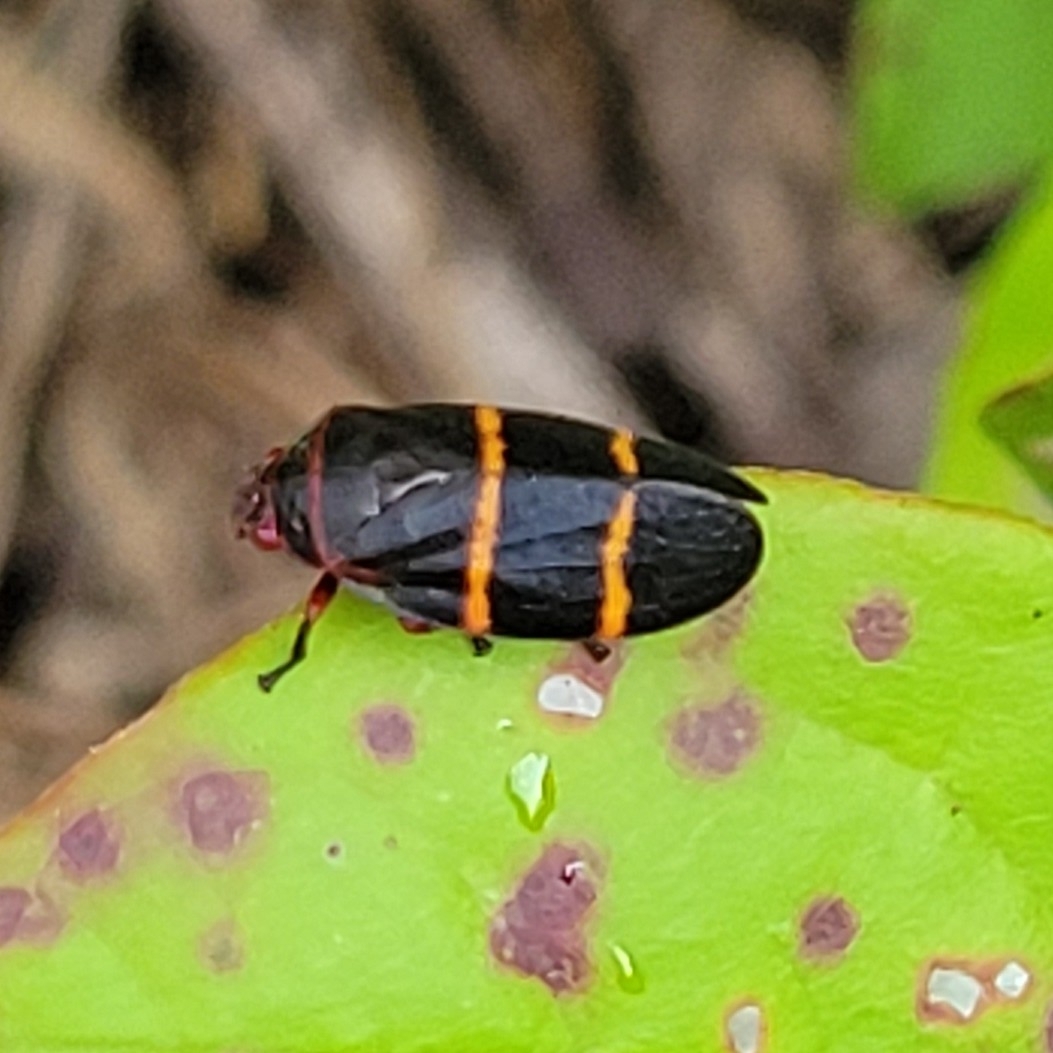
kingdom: Animalia
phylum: Arthropoda
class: Insecta
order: Hemiptera
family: Cercopidae
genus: Prosapia
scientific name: Prosapia bicincta
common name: Twolined spittlebug
